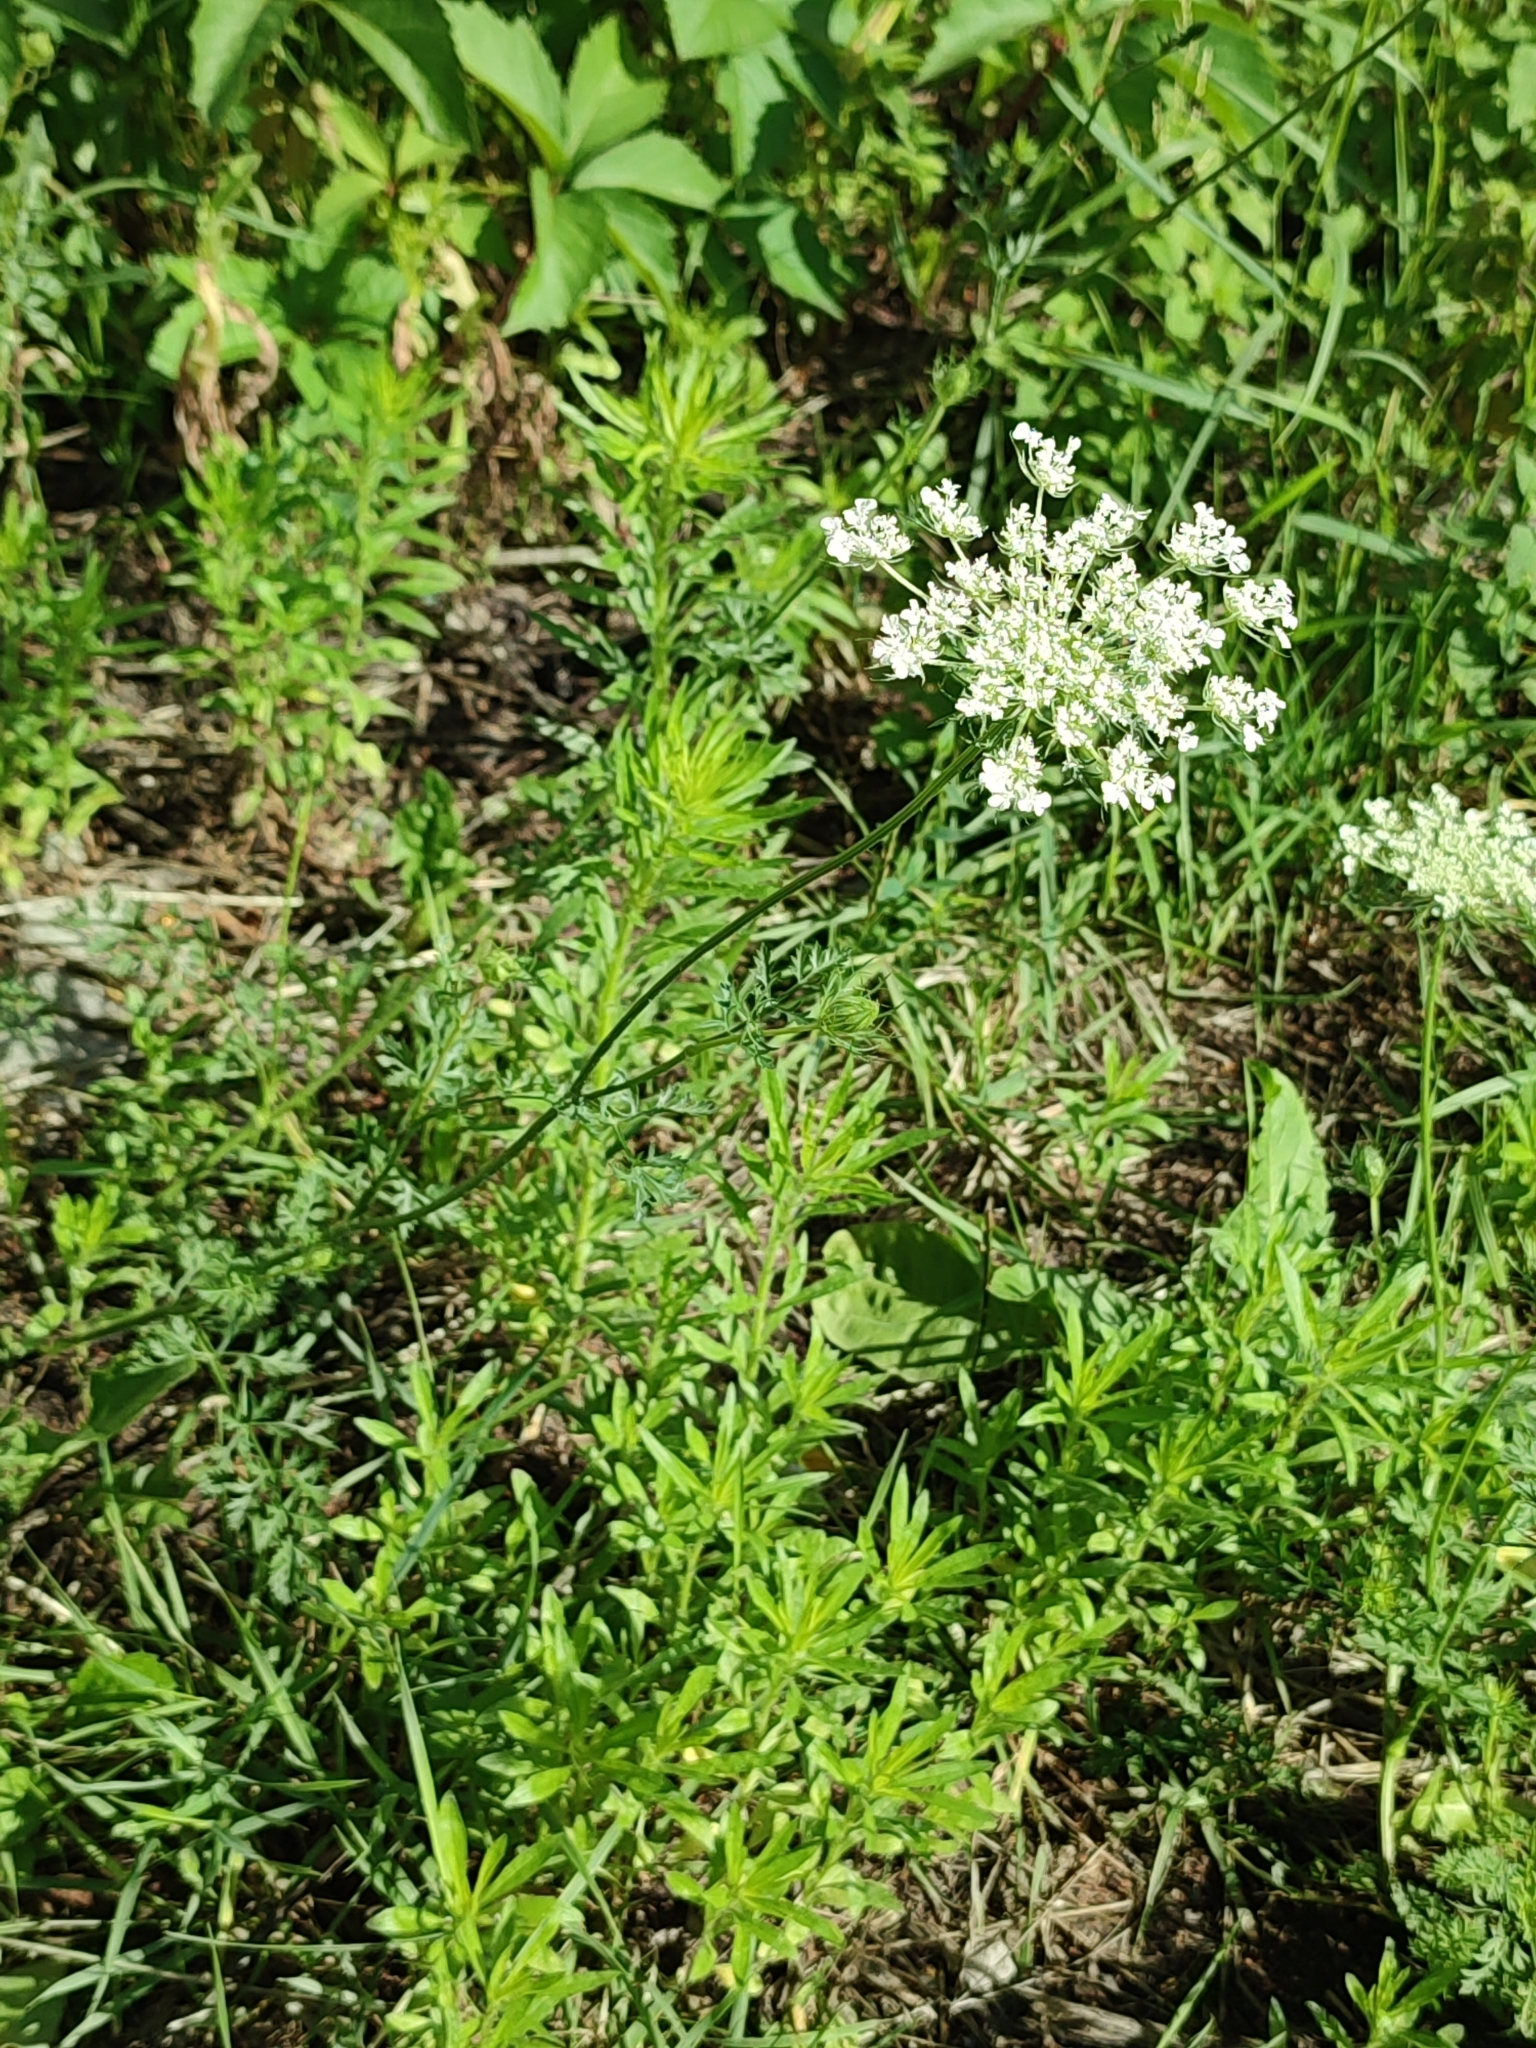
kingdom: Plantae
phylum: Tracheophyta
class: Magnoliopsida
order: Apiales
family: Apiaceae
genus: Daucus
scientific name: Daucus carota
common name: Wild carrot
